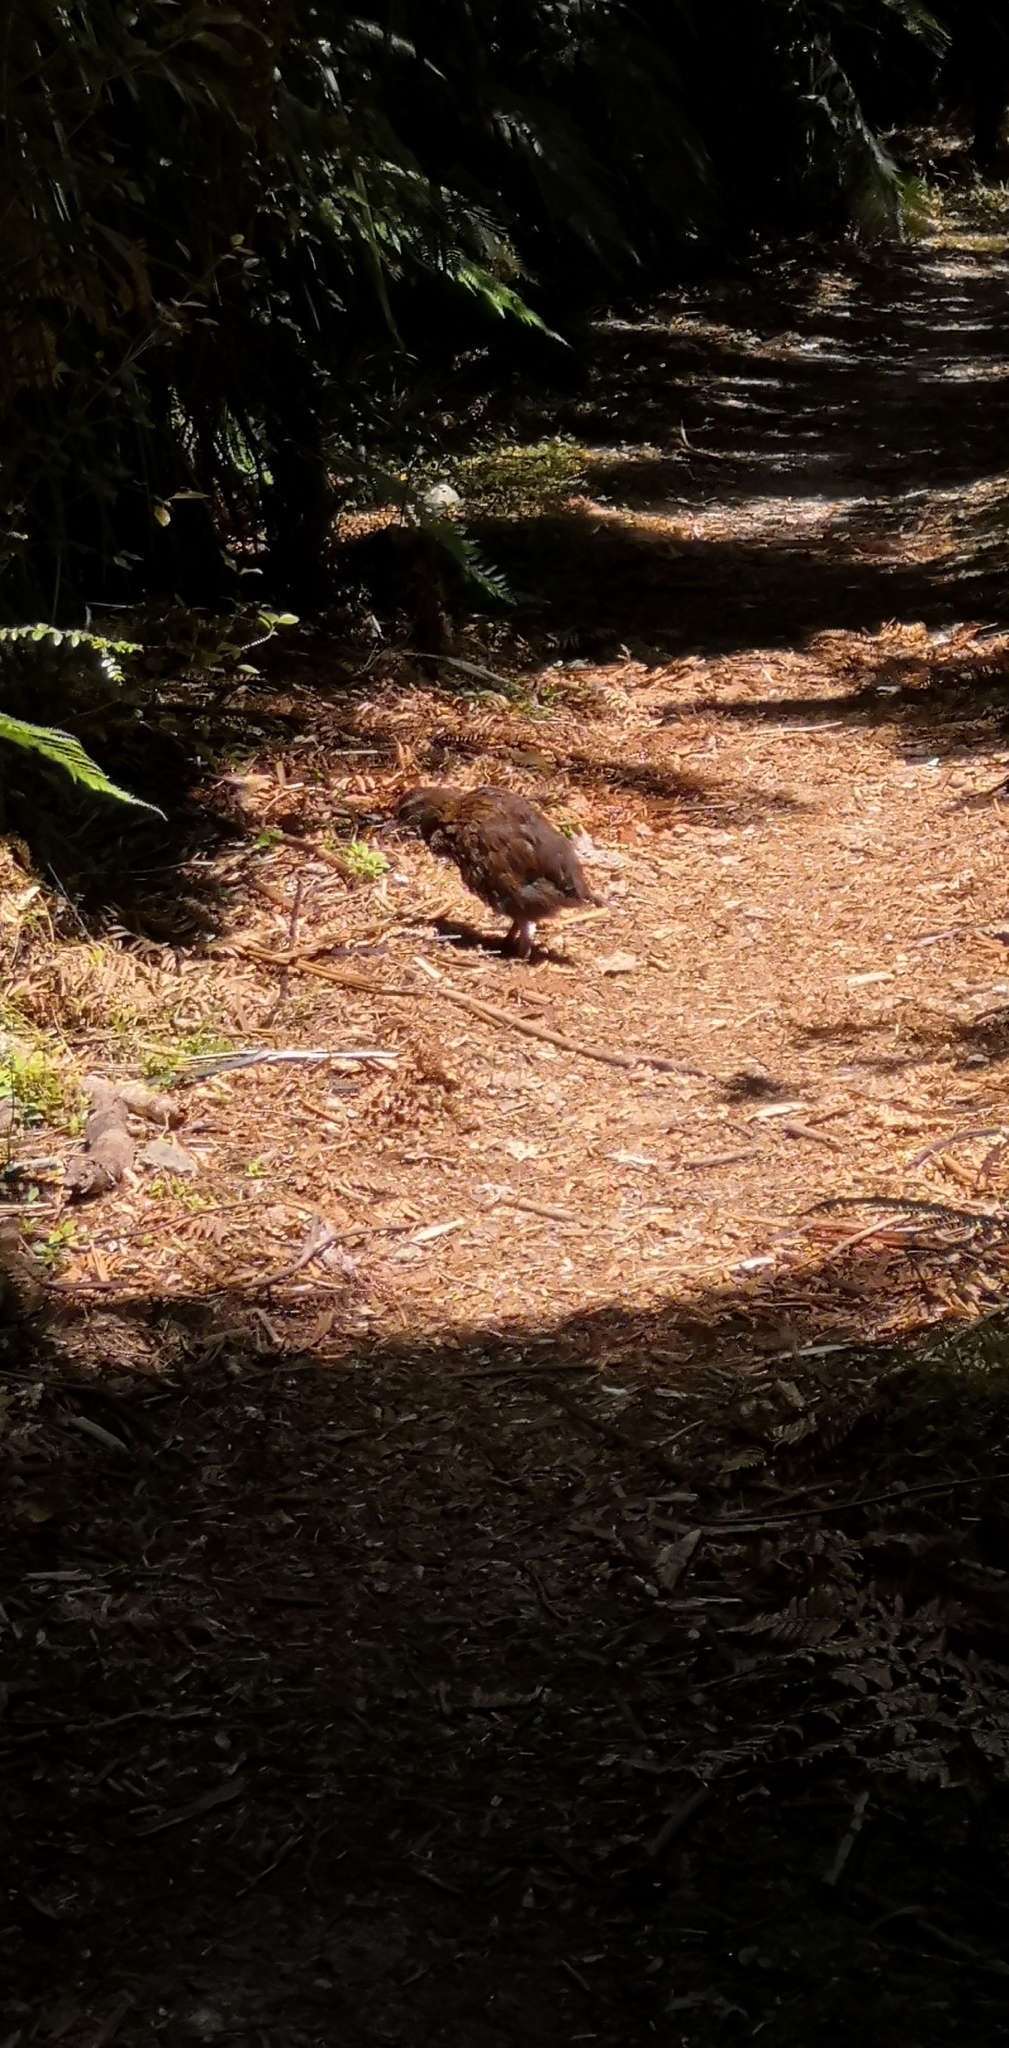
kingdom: Animalia
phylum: Chordata
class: Aves
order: Gruiformes
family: Rallidae
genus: Gallirallus
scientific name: Gallirallus australis
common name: Weka
